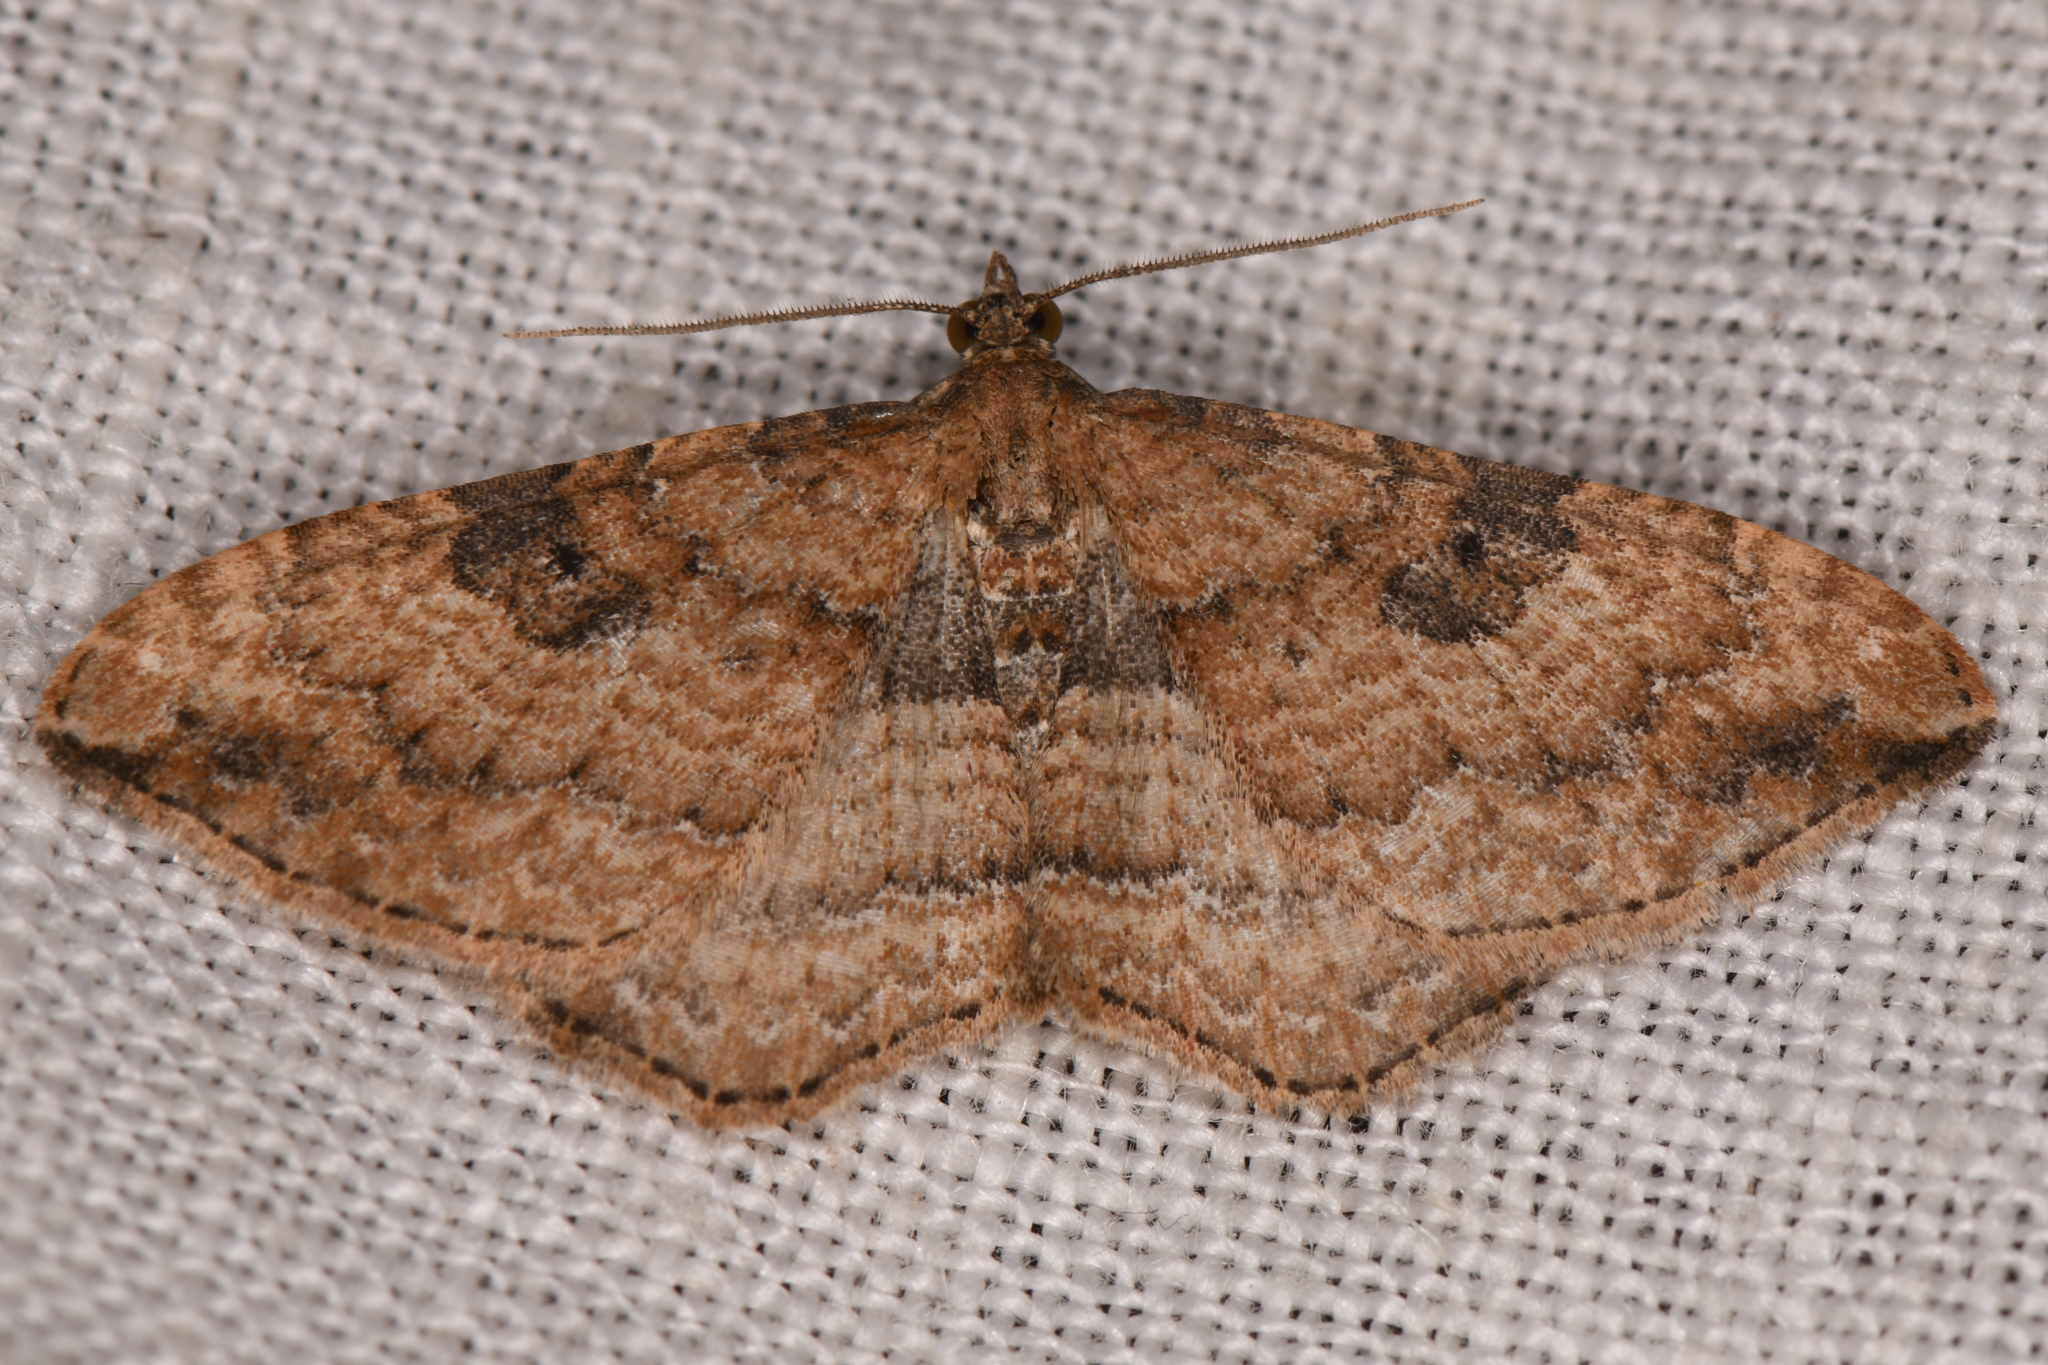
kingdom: Animalia
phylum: Arthropoda
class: Insecta
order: Lepidoptera
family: Geometridae
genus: Orthonama
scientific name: Orthonama obstipata
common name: The gem
